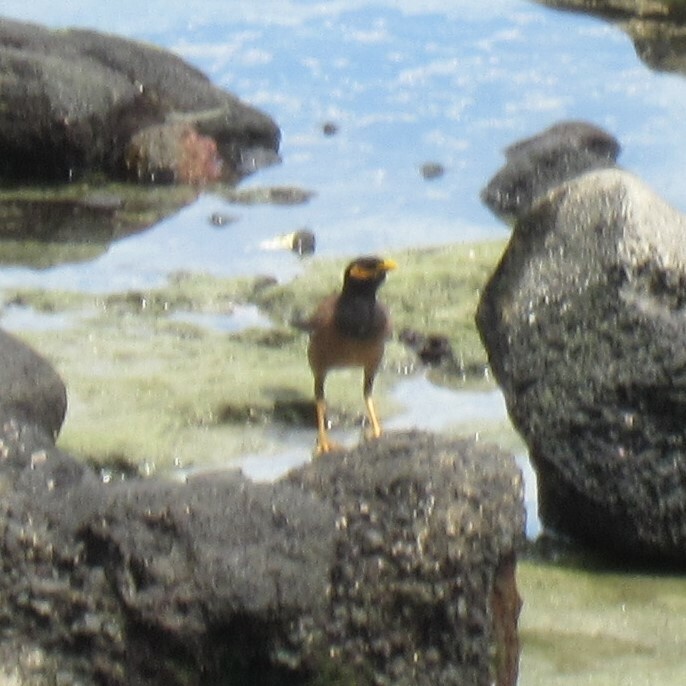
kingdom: Animalia
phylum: Chordata
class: Aves
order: Passeriformes
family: Sturnidae
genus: Acridotheres
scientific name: Acridotheres tristis
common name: Common myna
